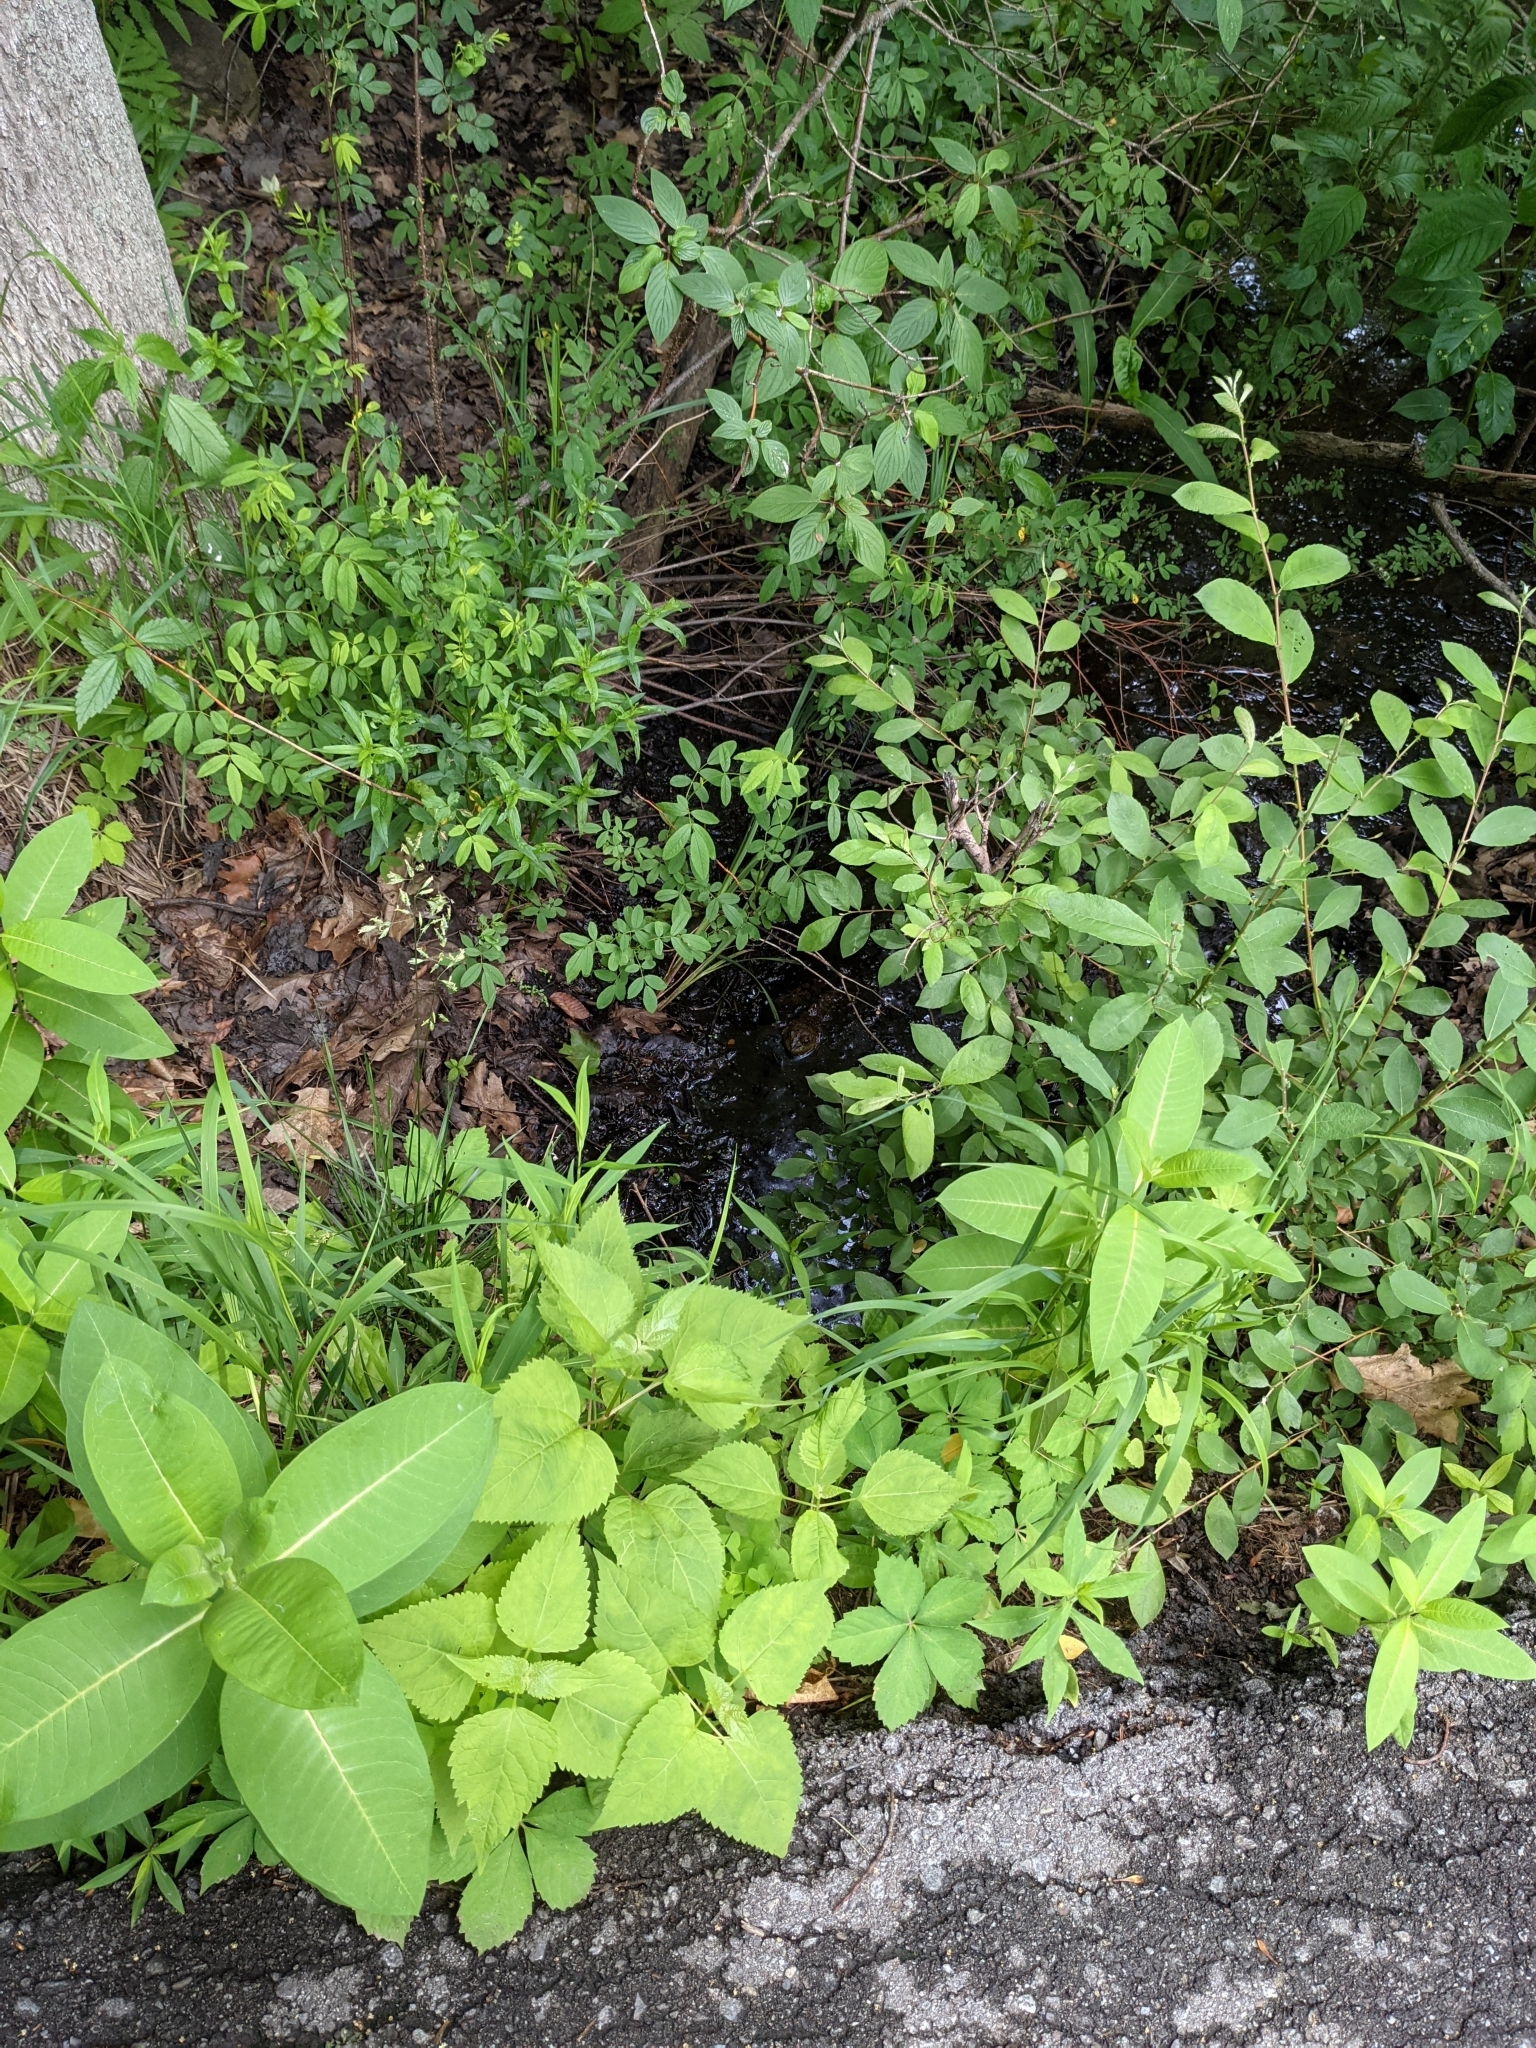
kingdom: Animalia
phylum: Chordata
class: Amphibia
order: Anura
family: Ranidae
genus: Lithobates
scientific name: Lithobates catesbeianus
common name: American bullfrog
